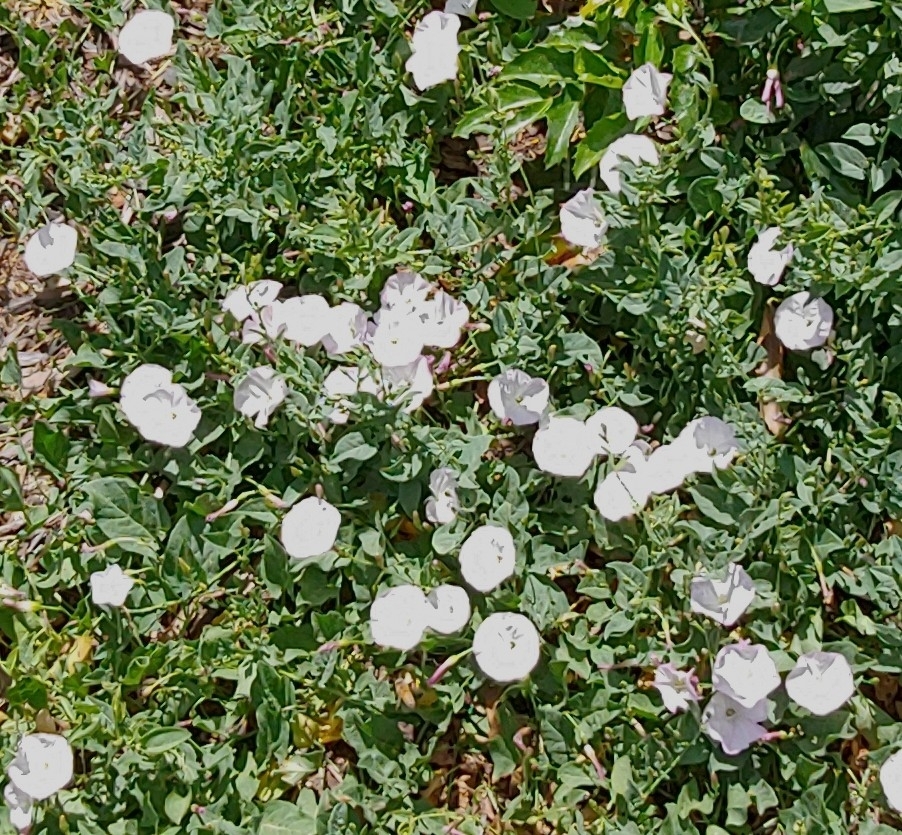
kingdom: Plantae
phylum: Tracheophyta
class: Magnoliopsida
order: Solanales
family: Convolvulaceae
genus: Convolvulus
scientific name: Convolvulus arvensis
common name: Field bindweed
